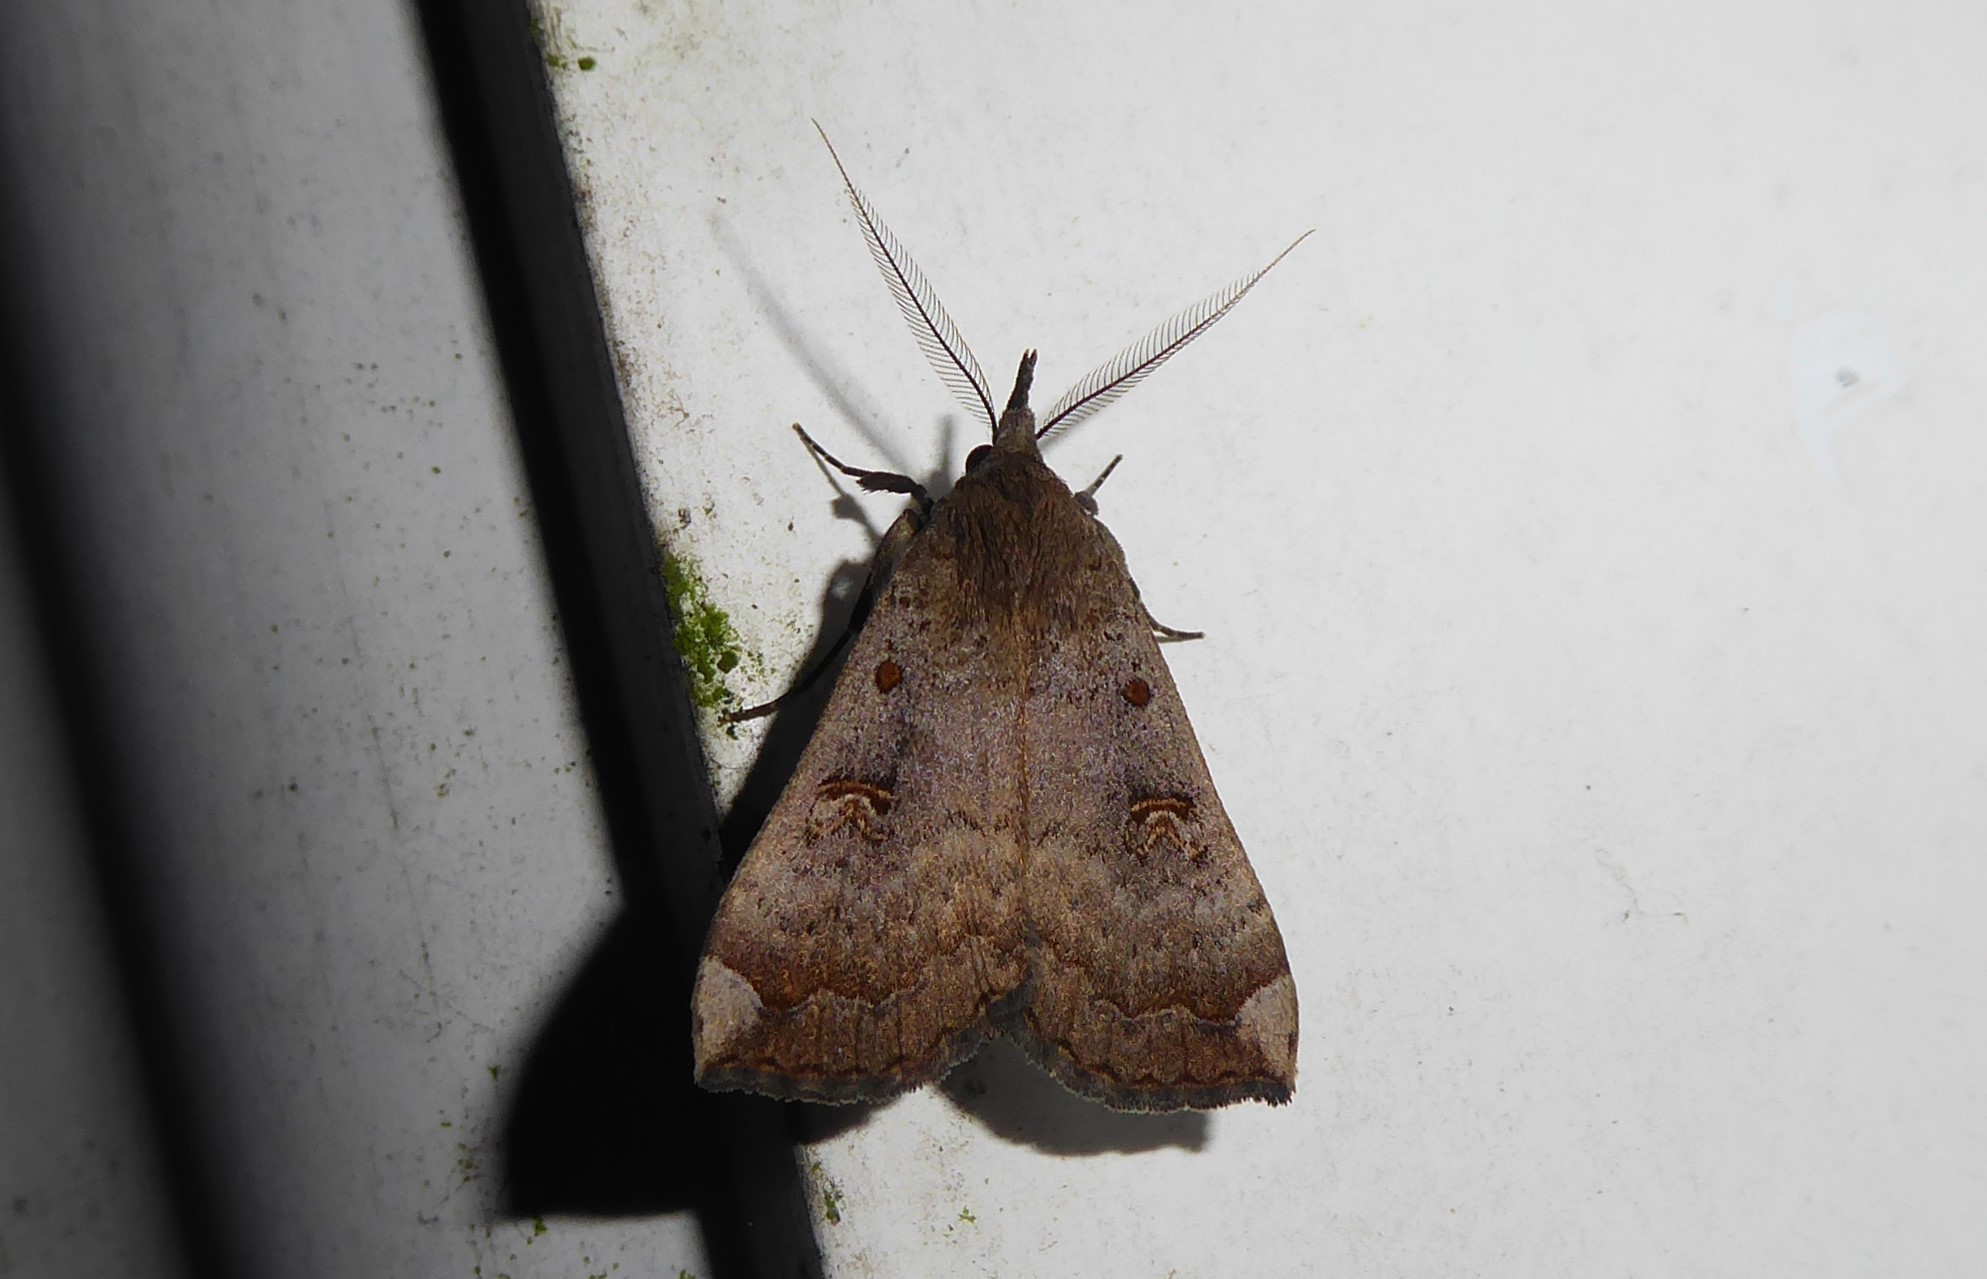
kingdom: Animalia
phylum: Arthropoda
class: Insecta
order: Lepidoptera
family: Erebidae
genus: Rhapsa
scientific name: Rhapsa scotosialis
